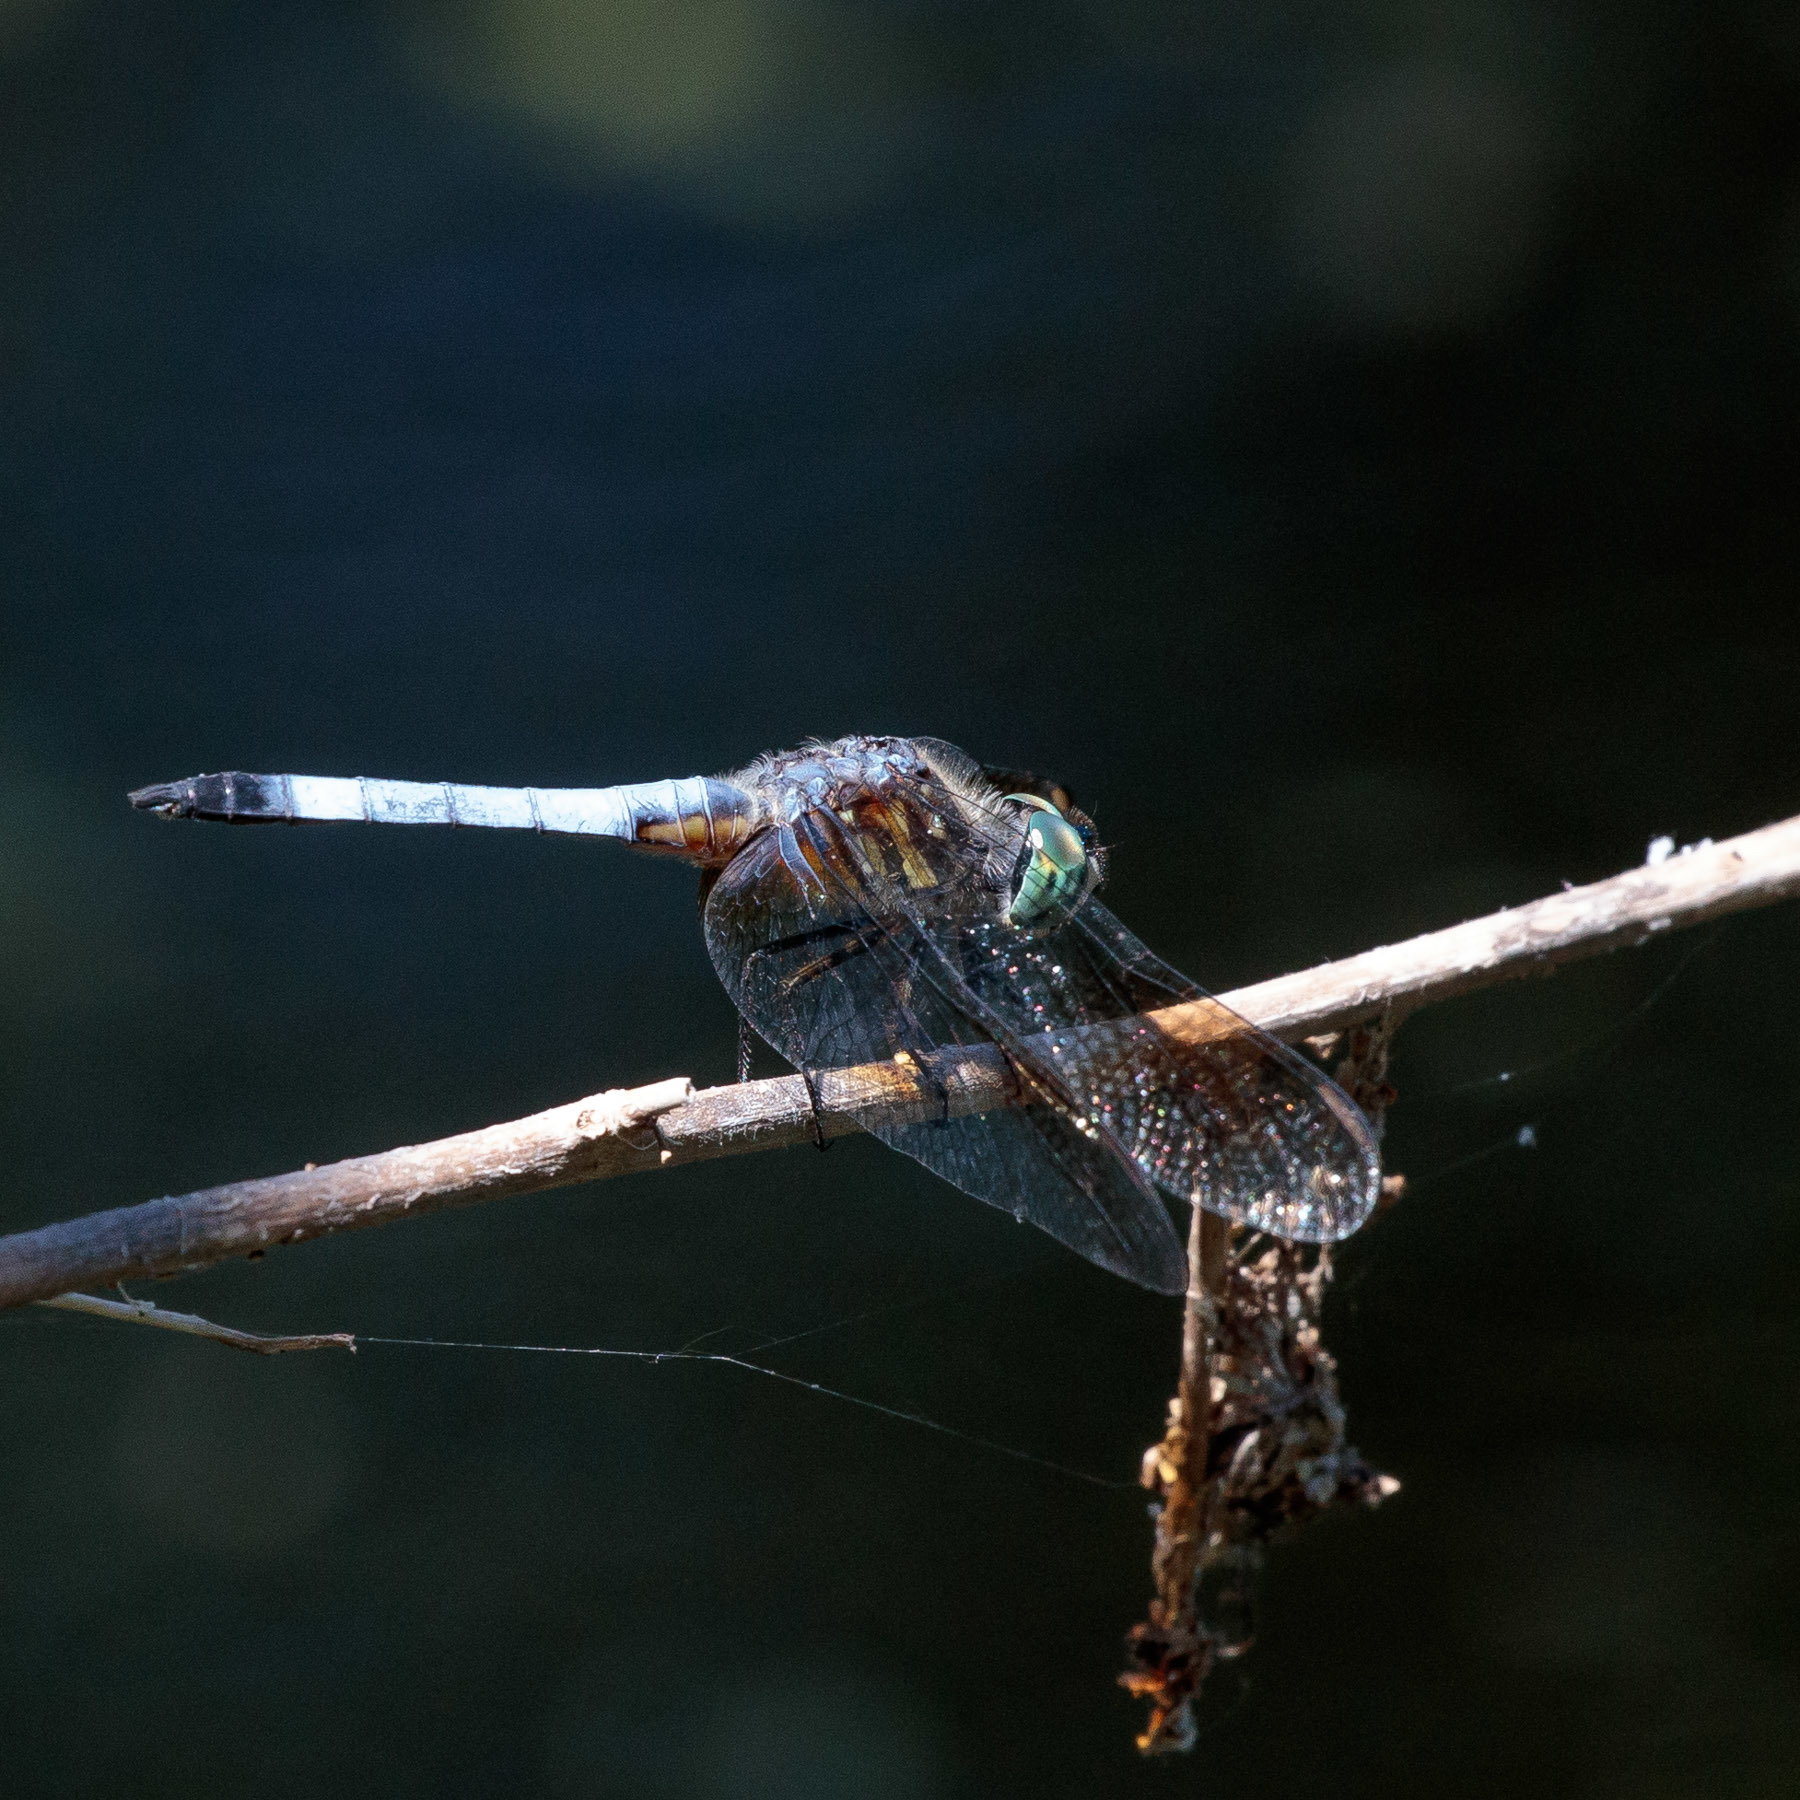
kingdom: Animalia
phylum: Arthropoda
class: Insecta
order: Odonata
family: Libellulidae
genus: Pachydiplax
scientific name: Pachydiplax longipennis
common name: Blue dasher
